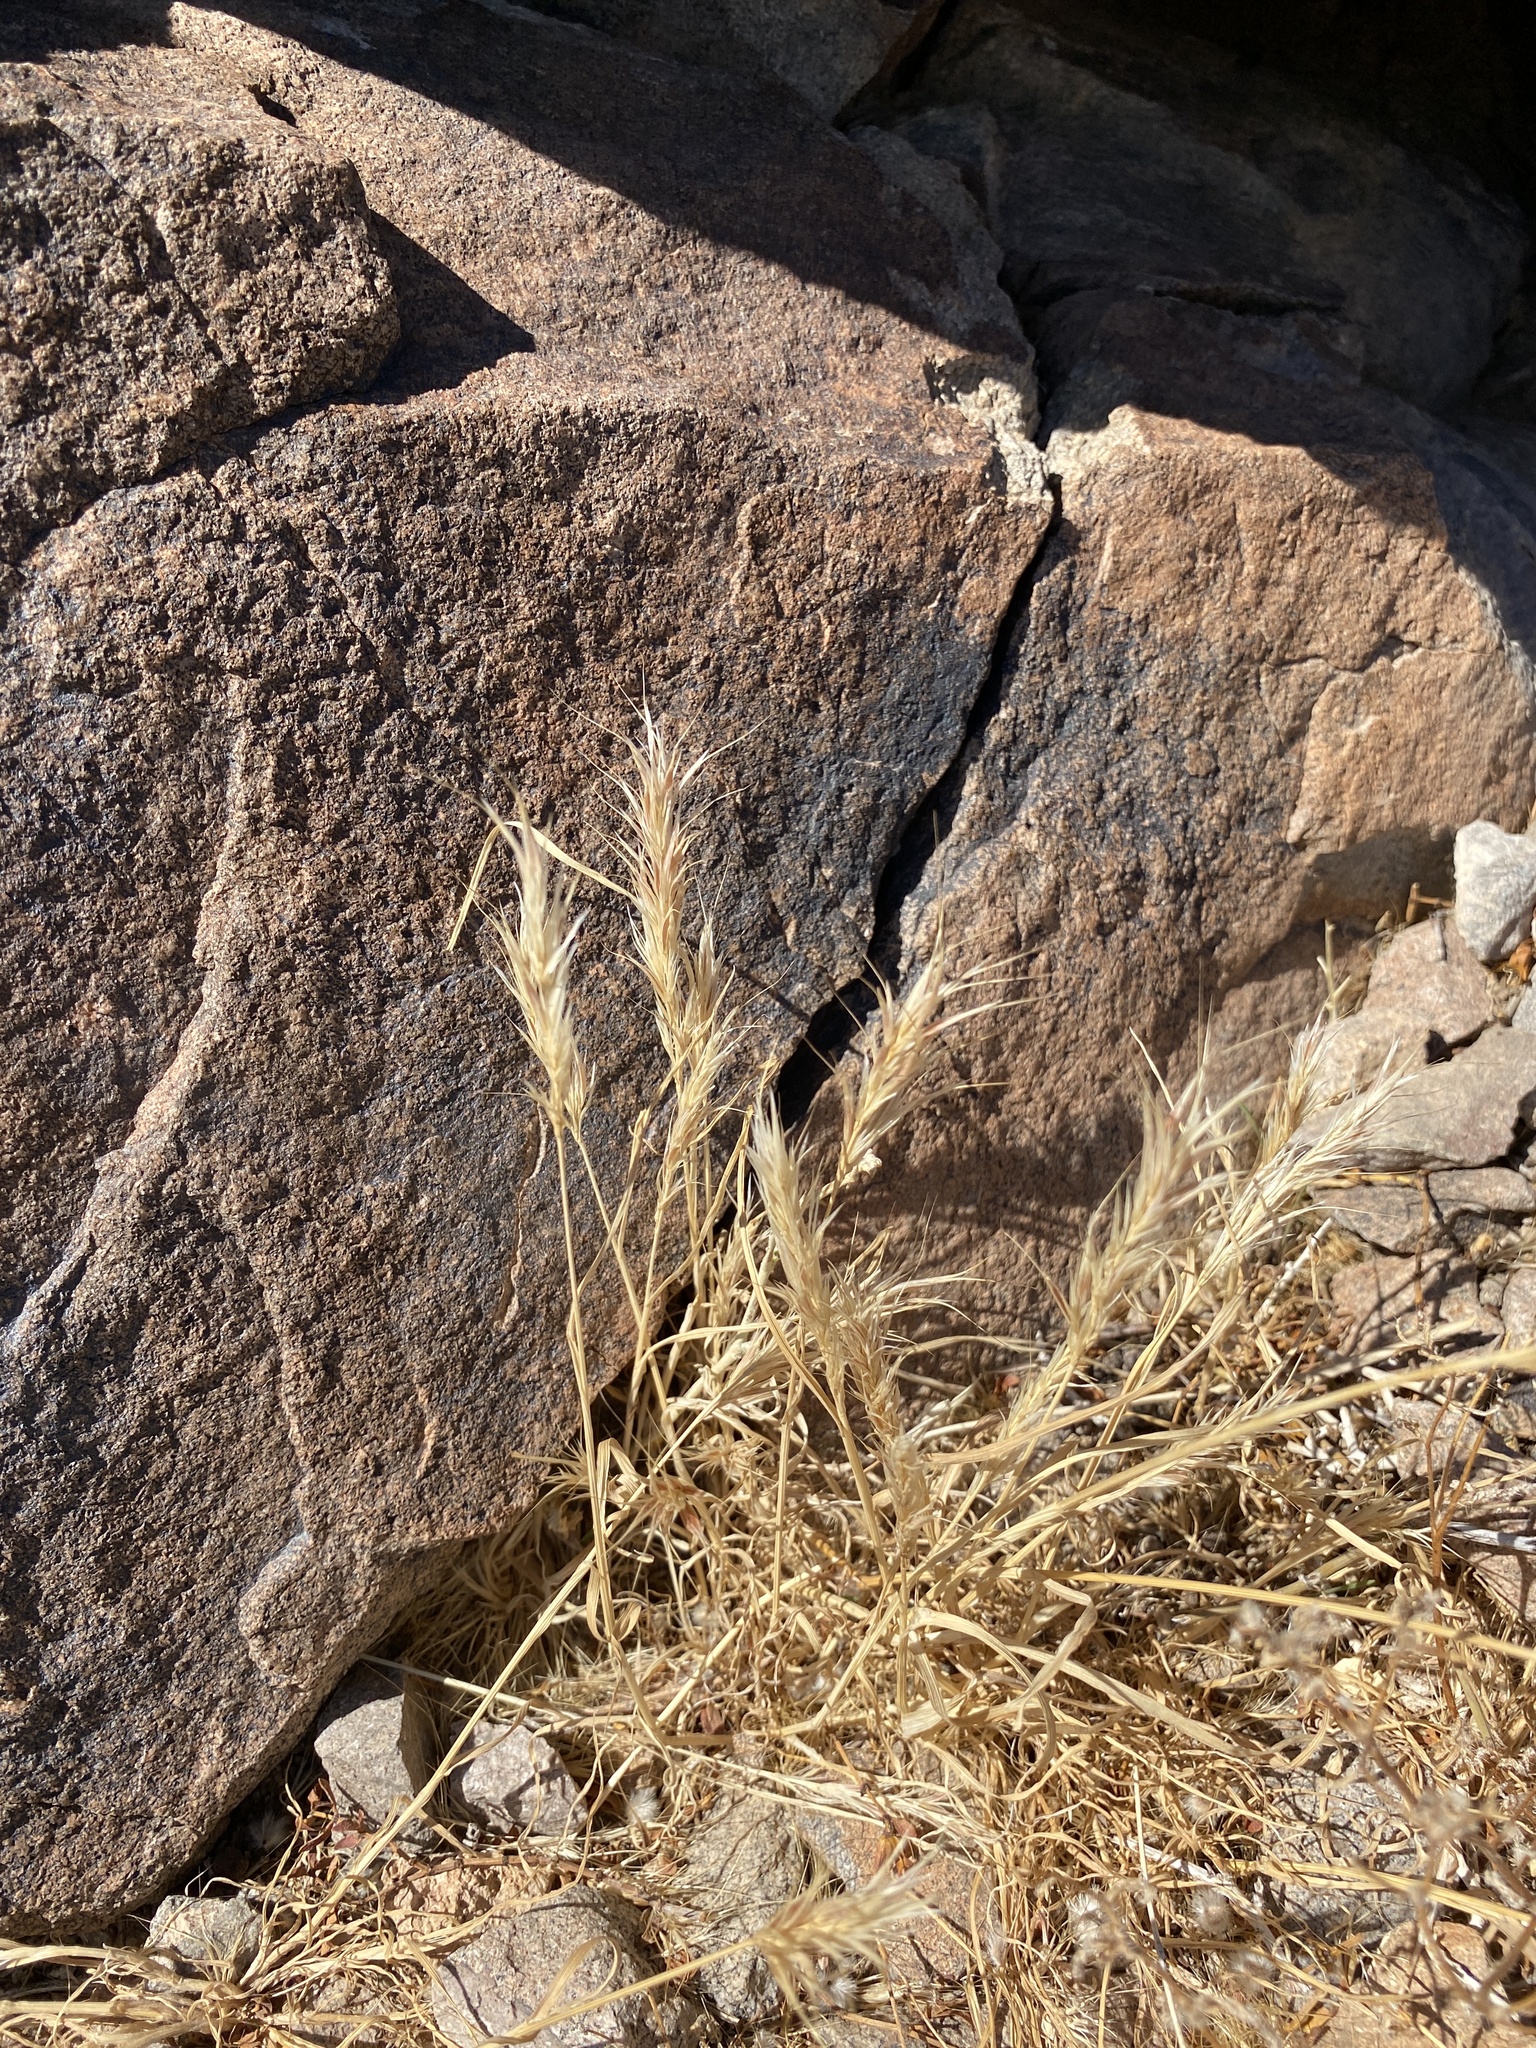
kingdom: Plantae
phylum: Tracheophyta
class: Liliopsida
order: Poales
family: Poaceae
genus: Bromus
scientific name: Bromus rubens
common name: Red brome
